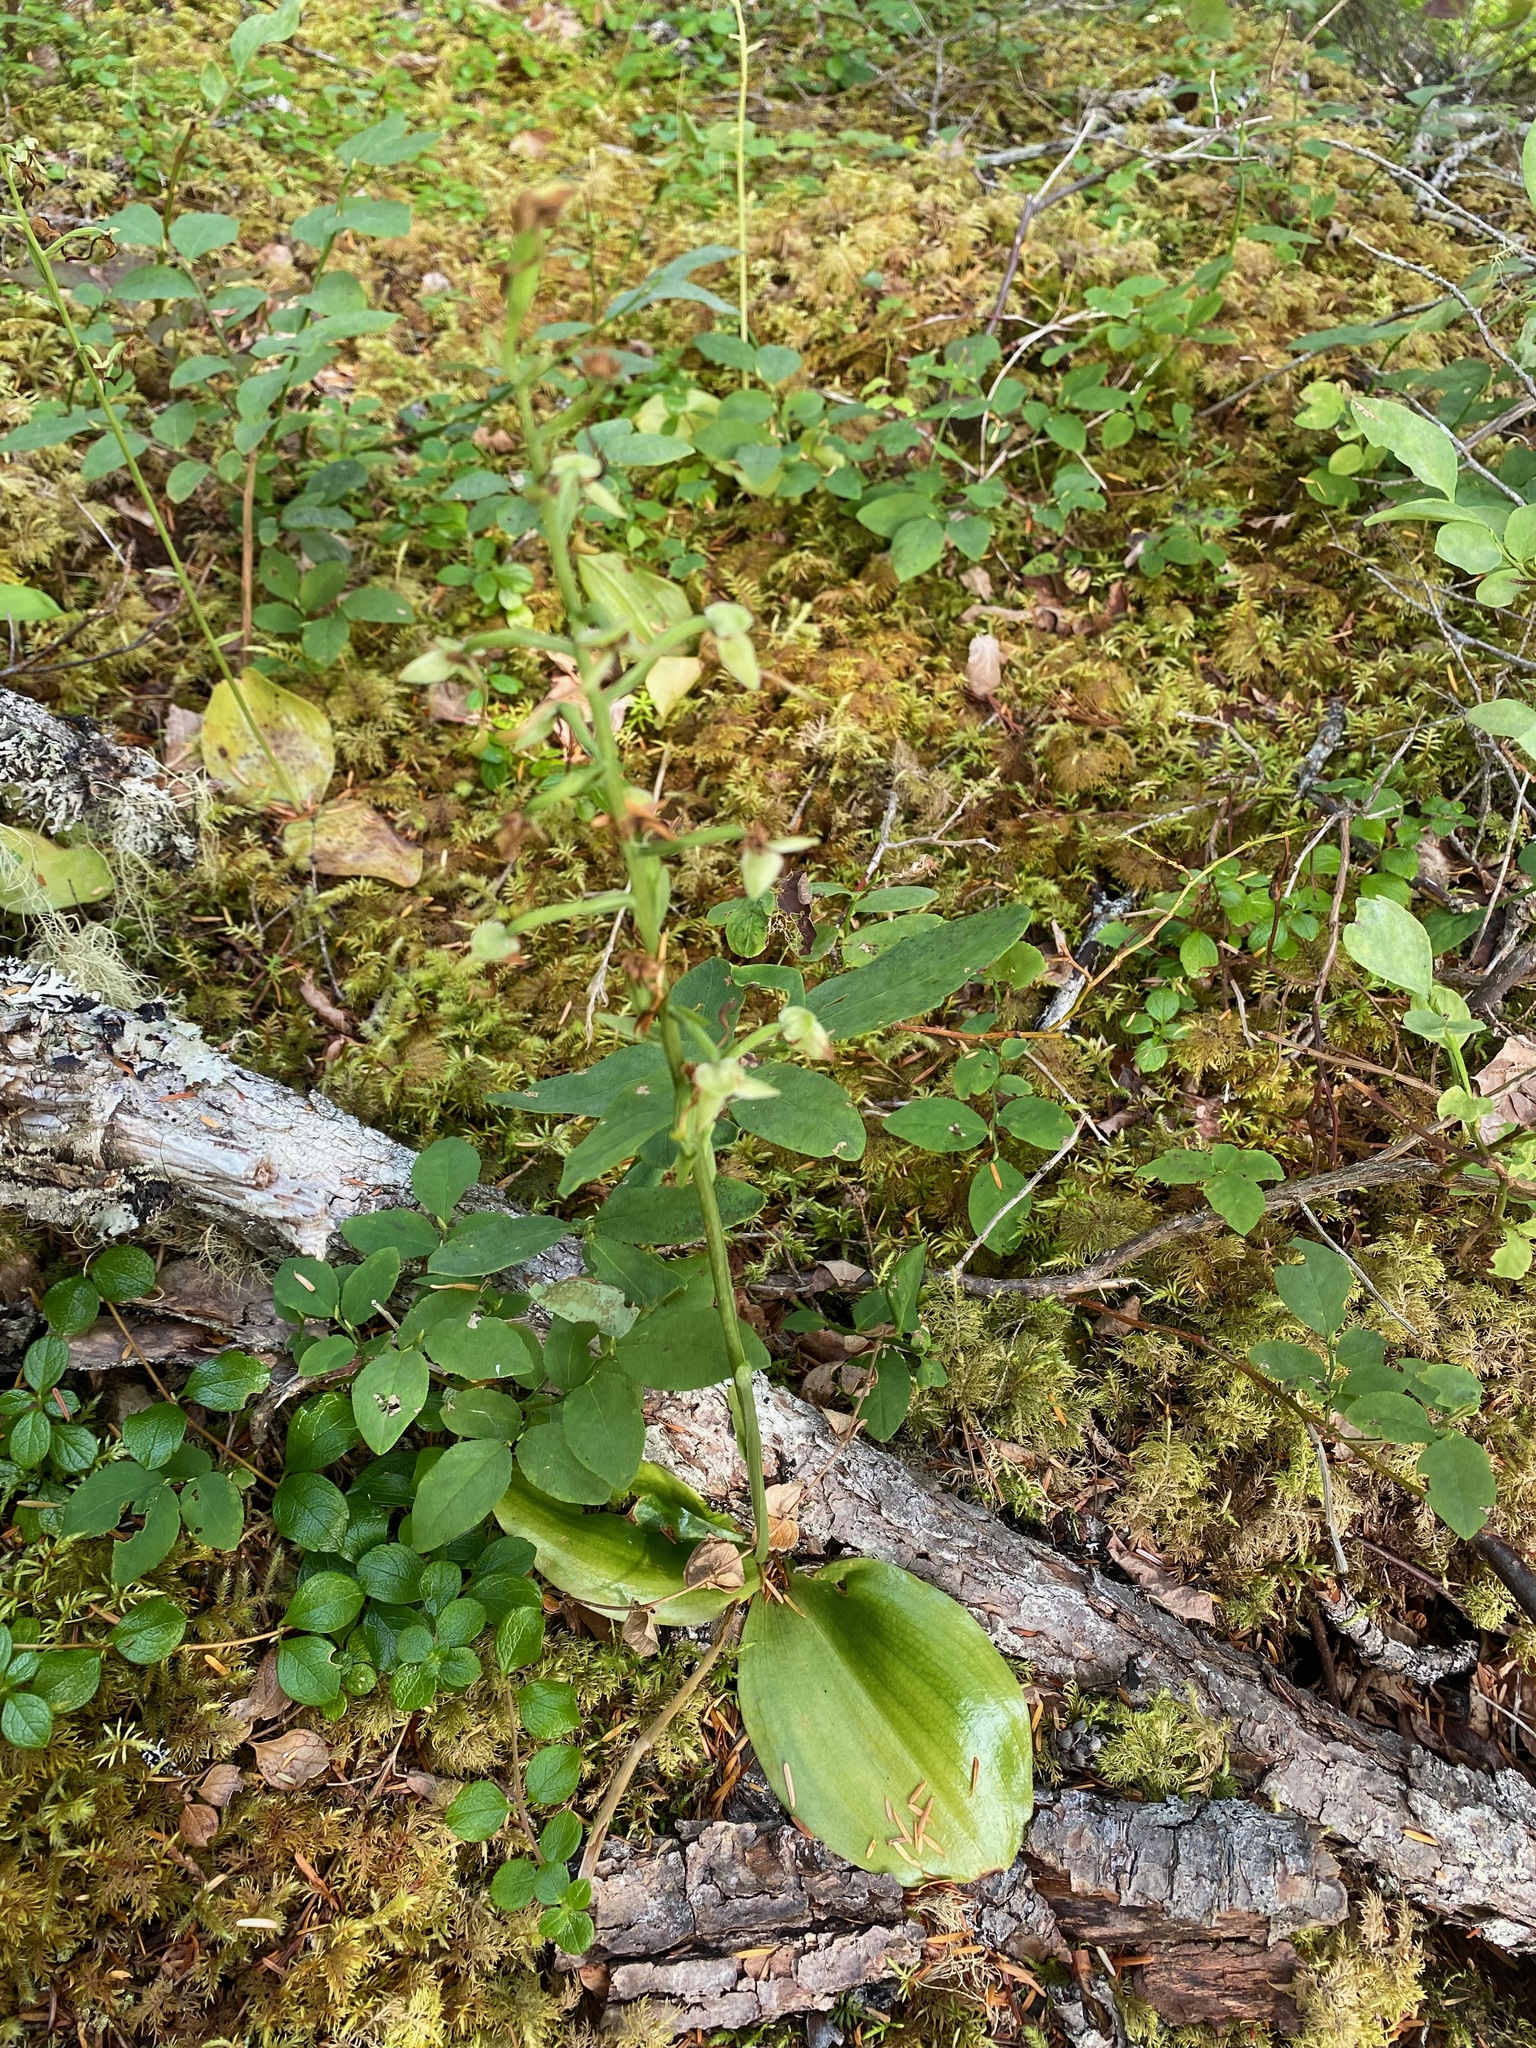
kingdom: Plantae
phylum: Tracheophyta
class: Liliopsida
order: Asparagales
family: Orchidaceae
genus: Platanthera
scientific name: Platanthera orbiculata
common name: Large round-leaved orchid
